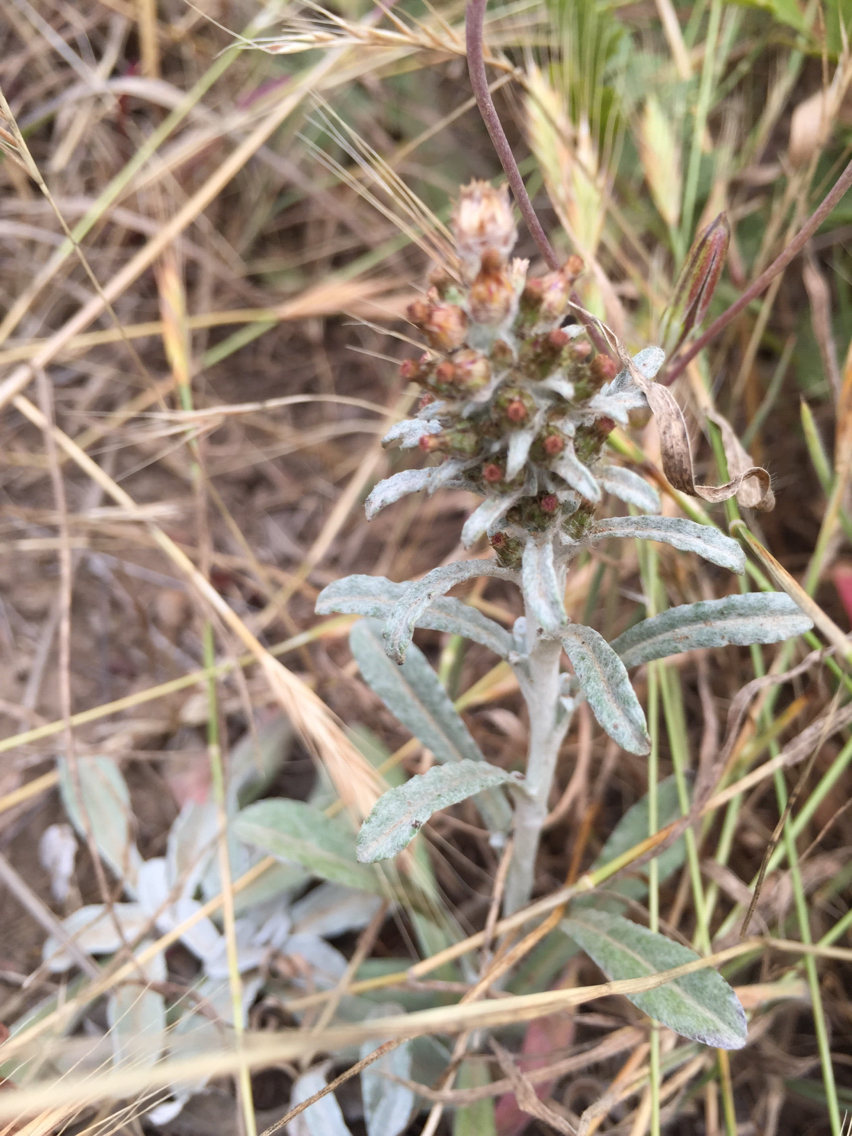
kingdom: Plantae
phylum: Tracheophyta
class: Magnoliopsida
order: Asterales
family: Asteraceae
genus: Gamochaeta
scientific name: Gamochaeta ustulata
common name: Pacific cudweed
